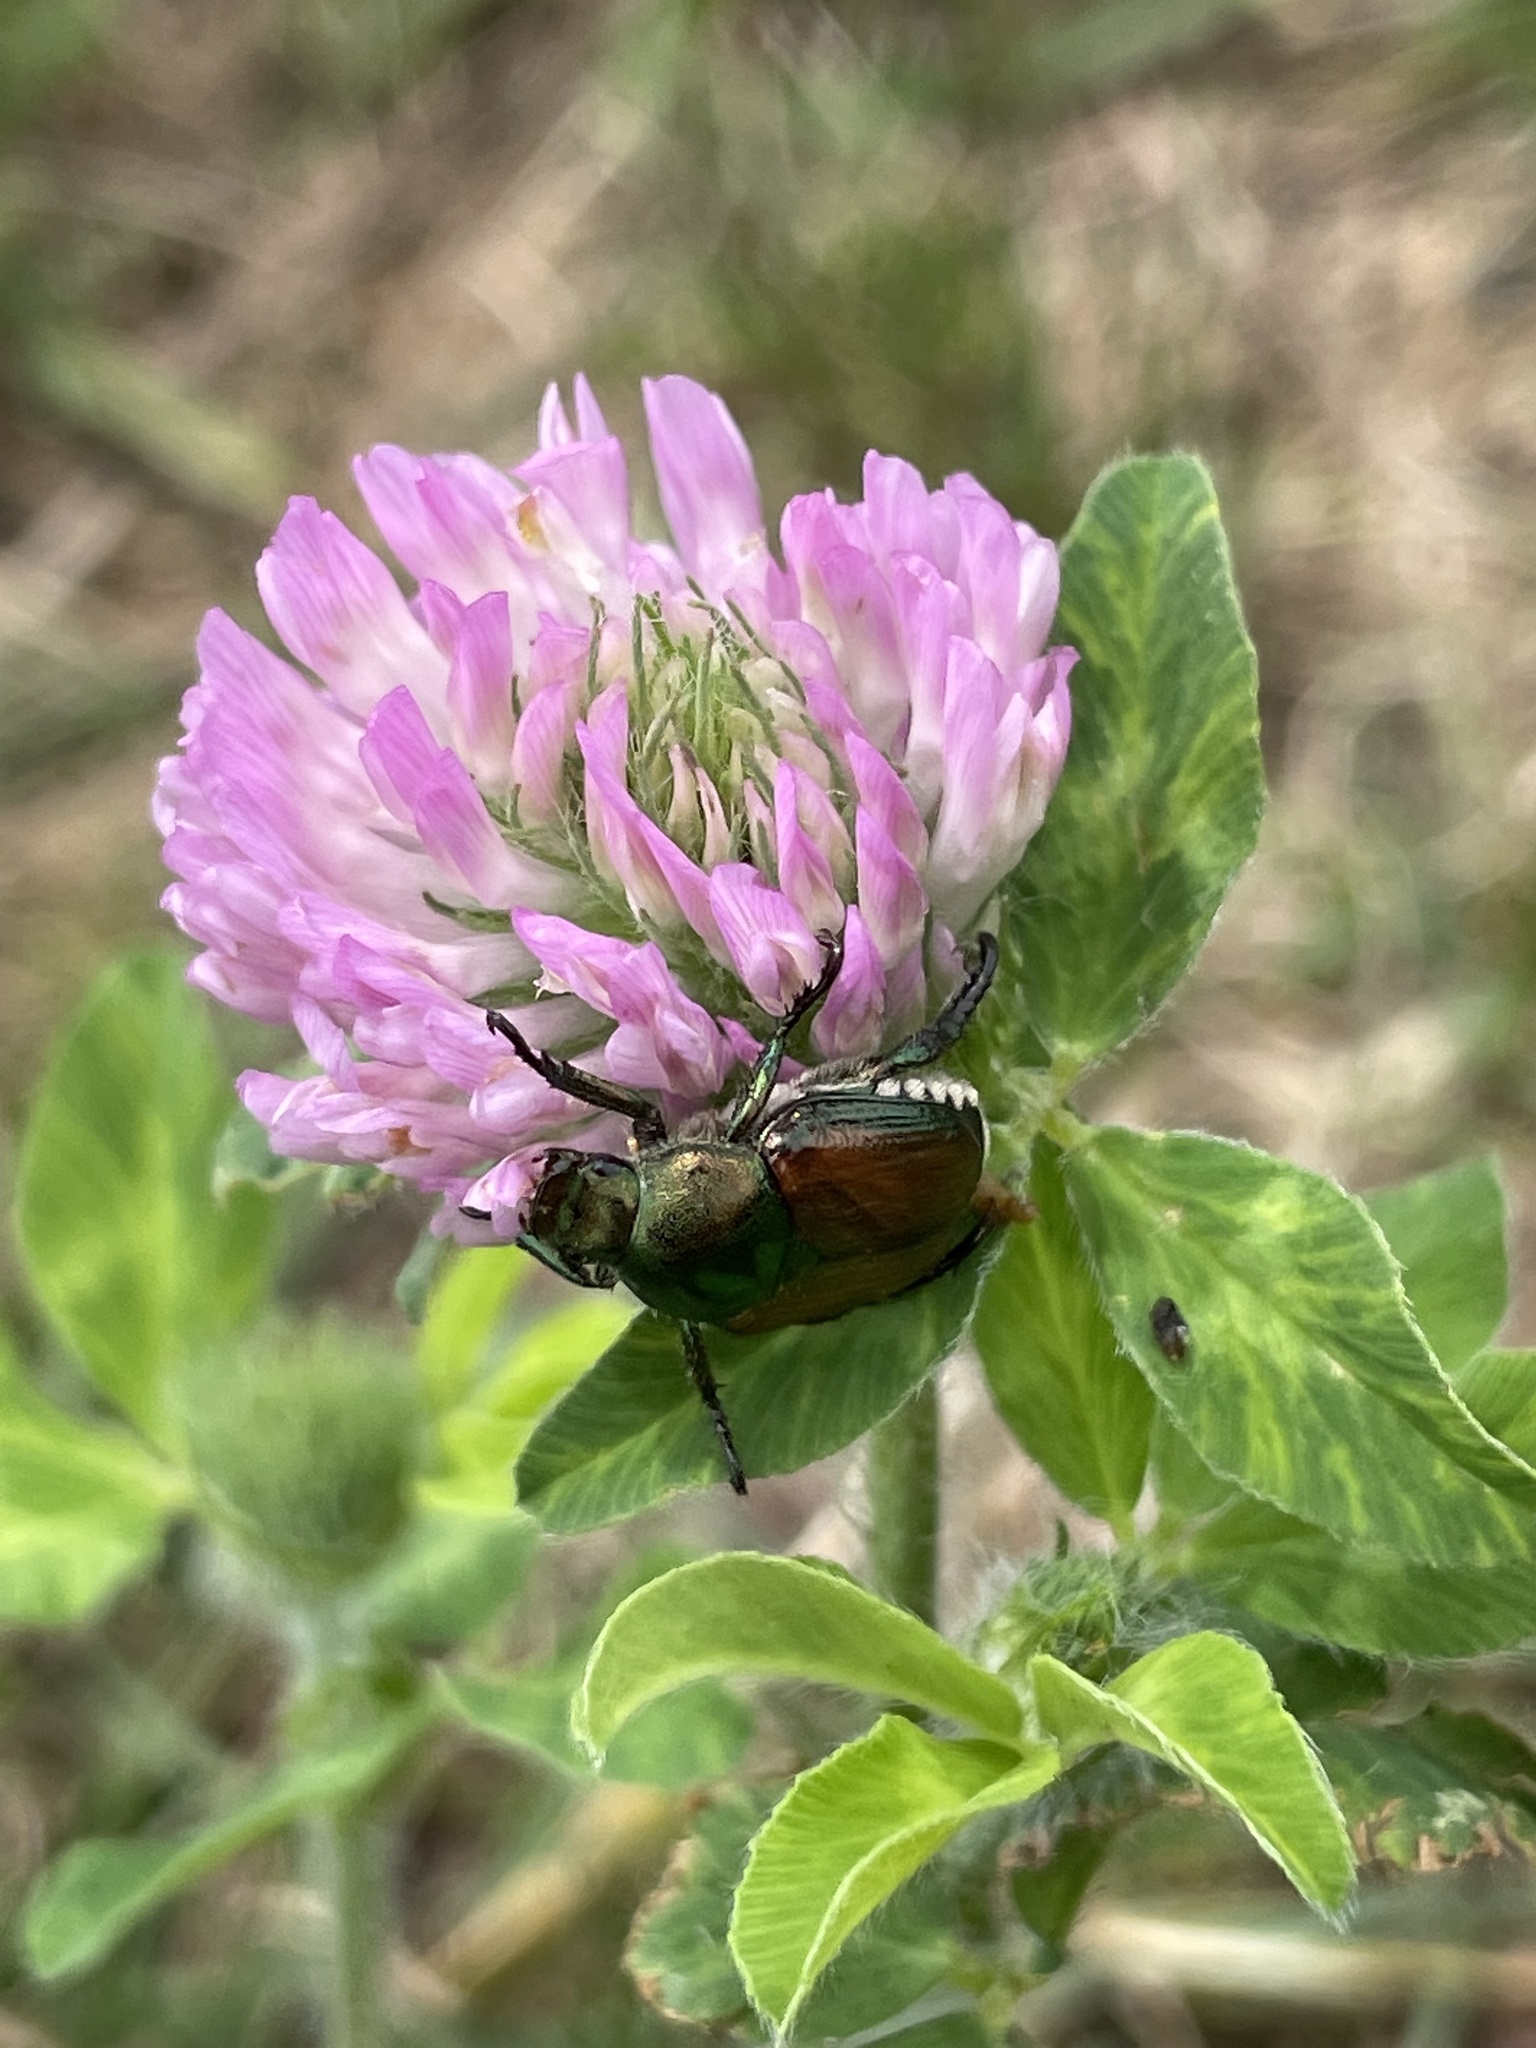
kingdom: Plantae
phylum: Tracheophyta
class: Magnoliopsida
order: Fabales
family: Fabaceae
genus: Trifolium
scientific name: Trifolium pratense
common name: Red clover
